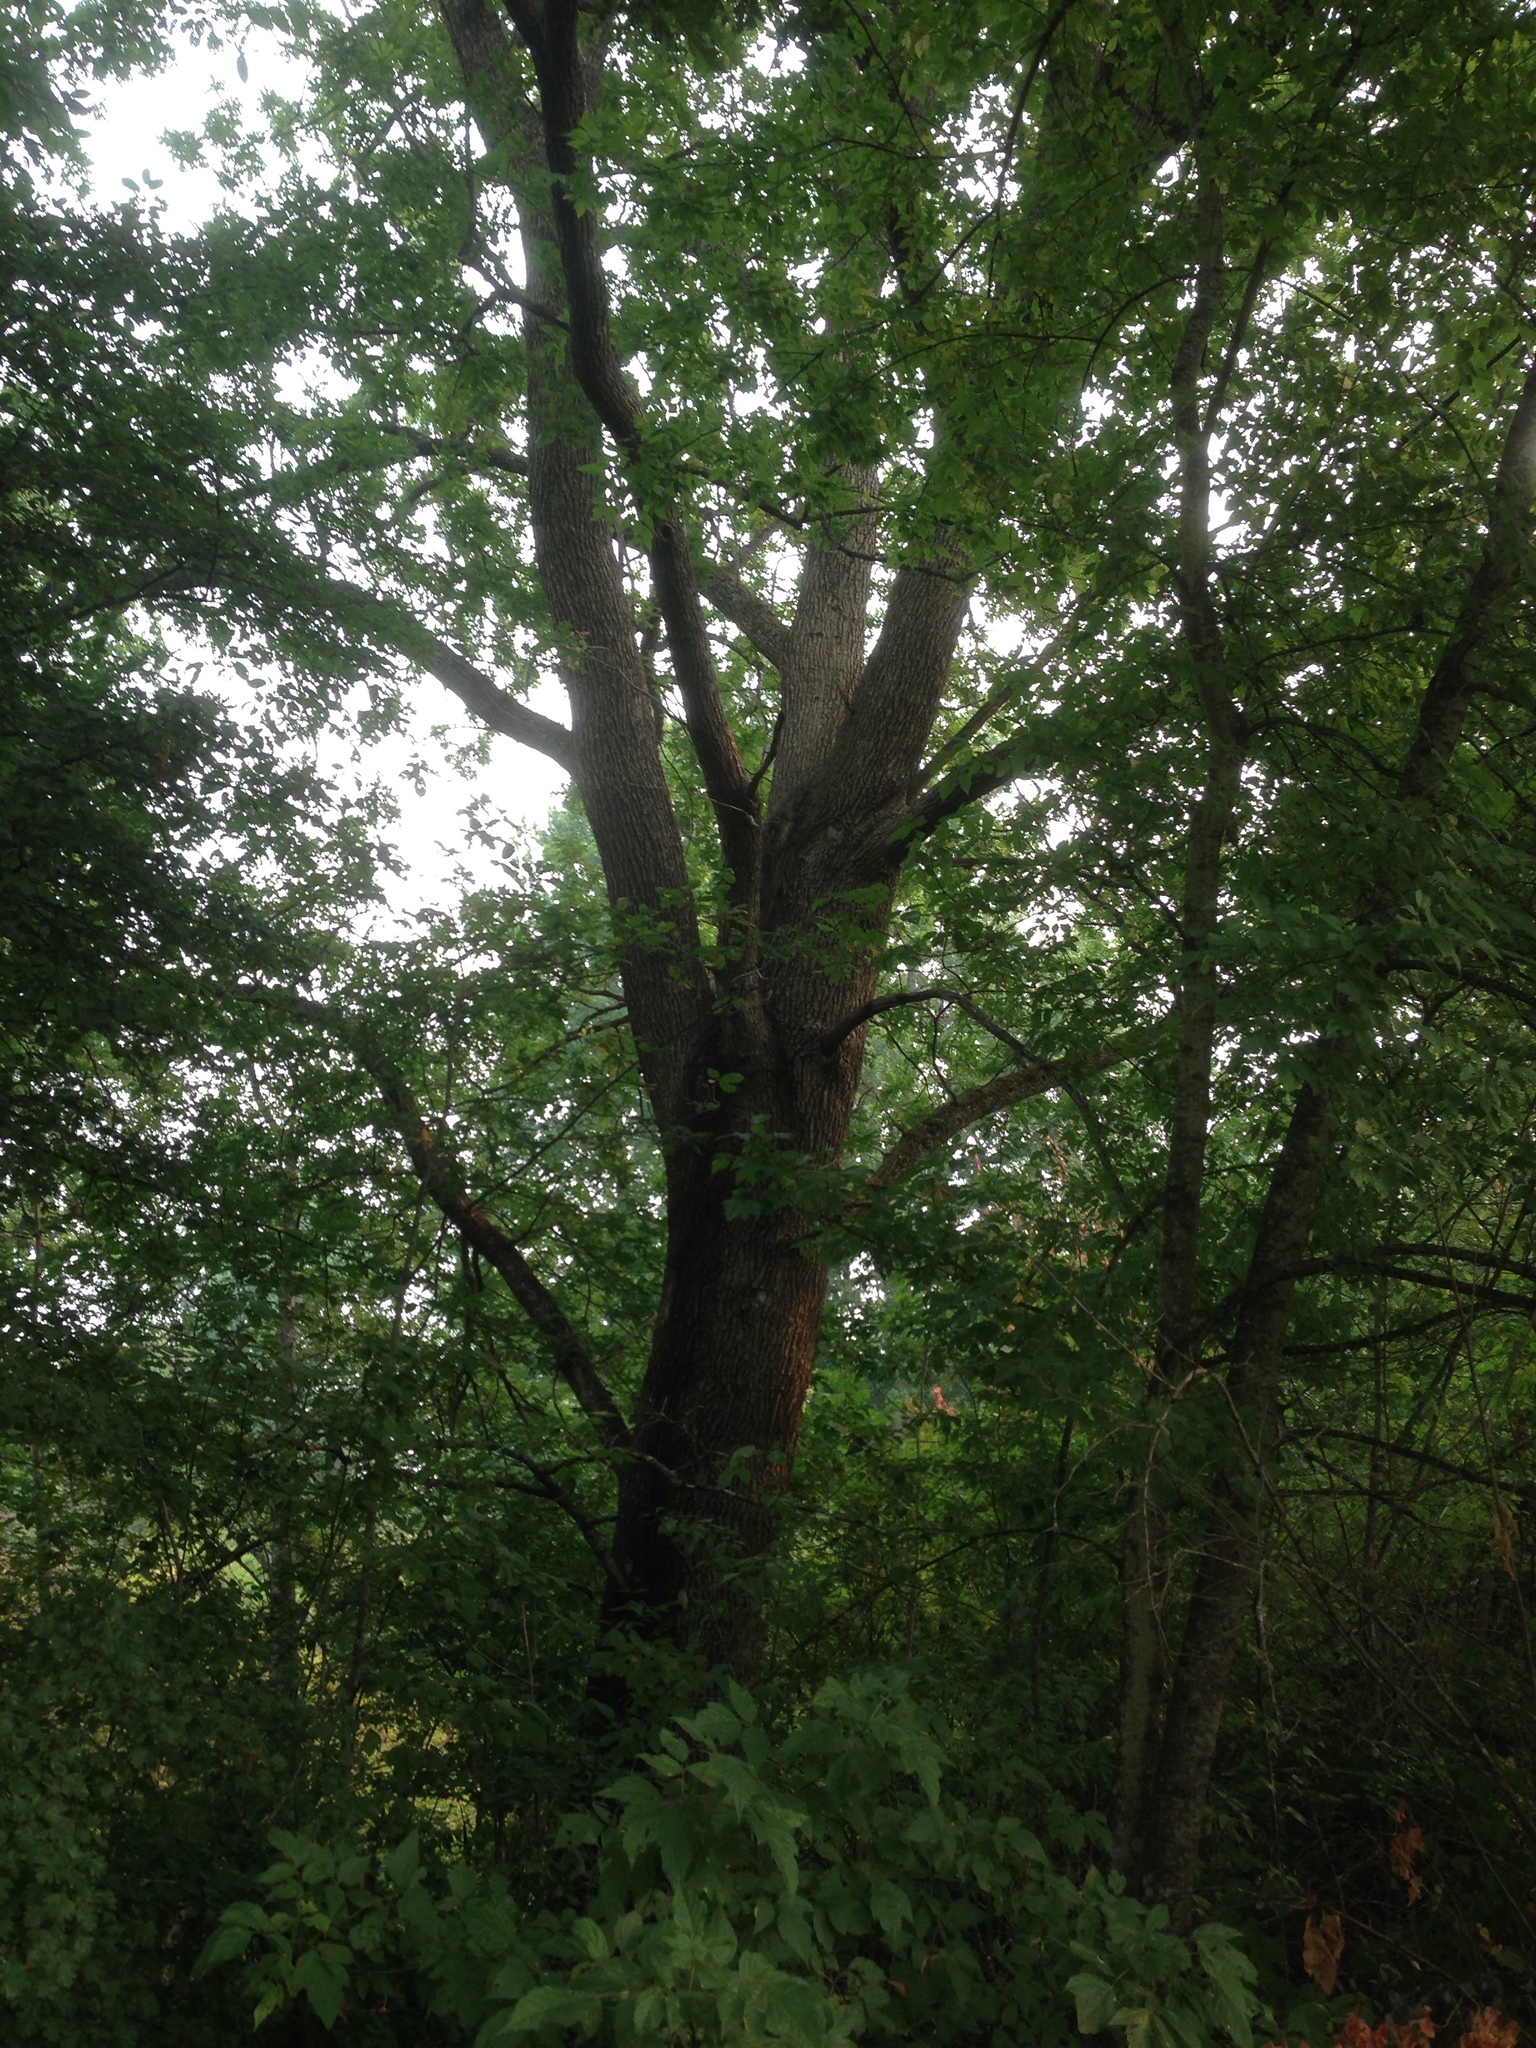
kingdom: Plantae
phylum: Tracheophyta
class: Magnoliopsida
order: Fagales
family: Fagaceae
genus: Quercus
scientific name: Quercus robur
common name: Pedunculate oak
